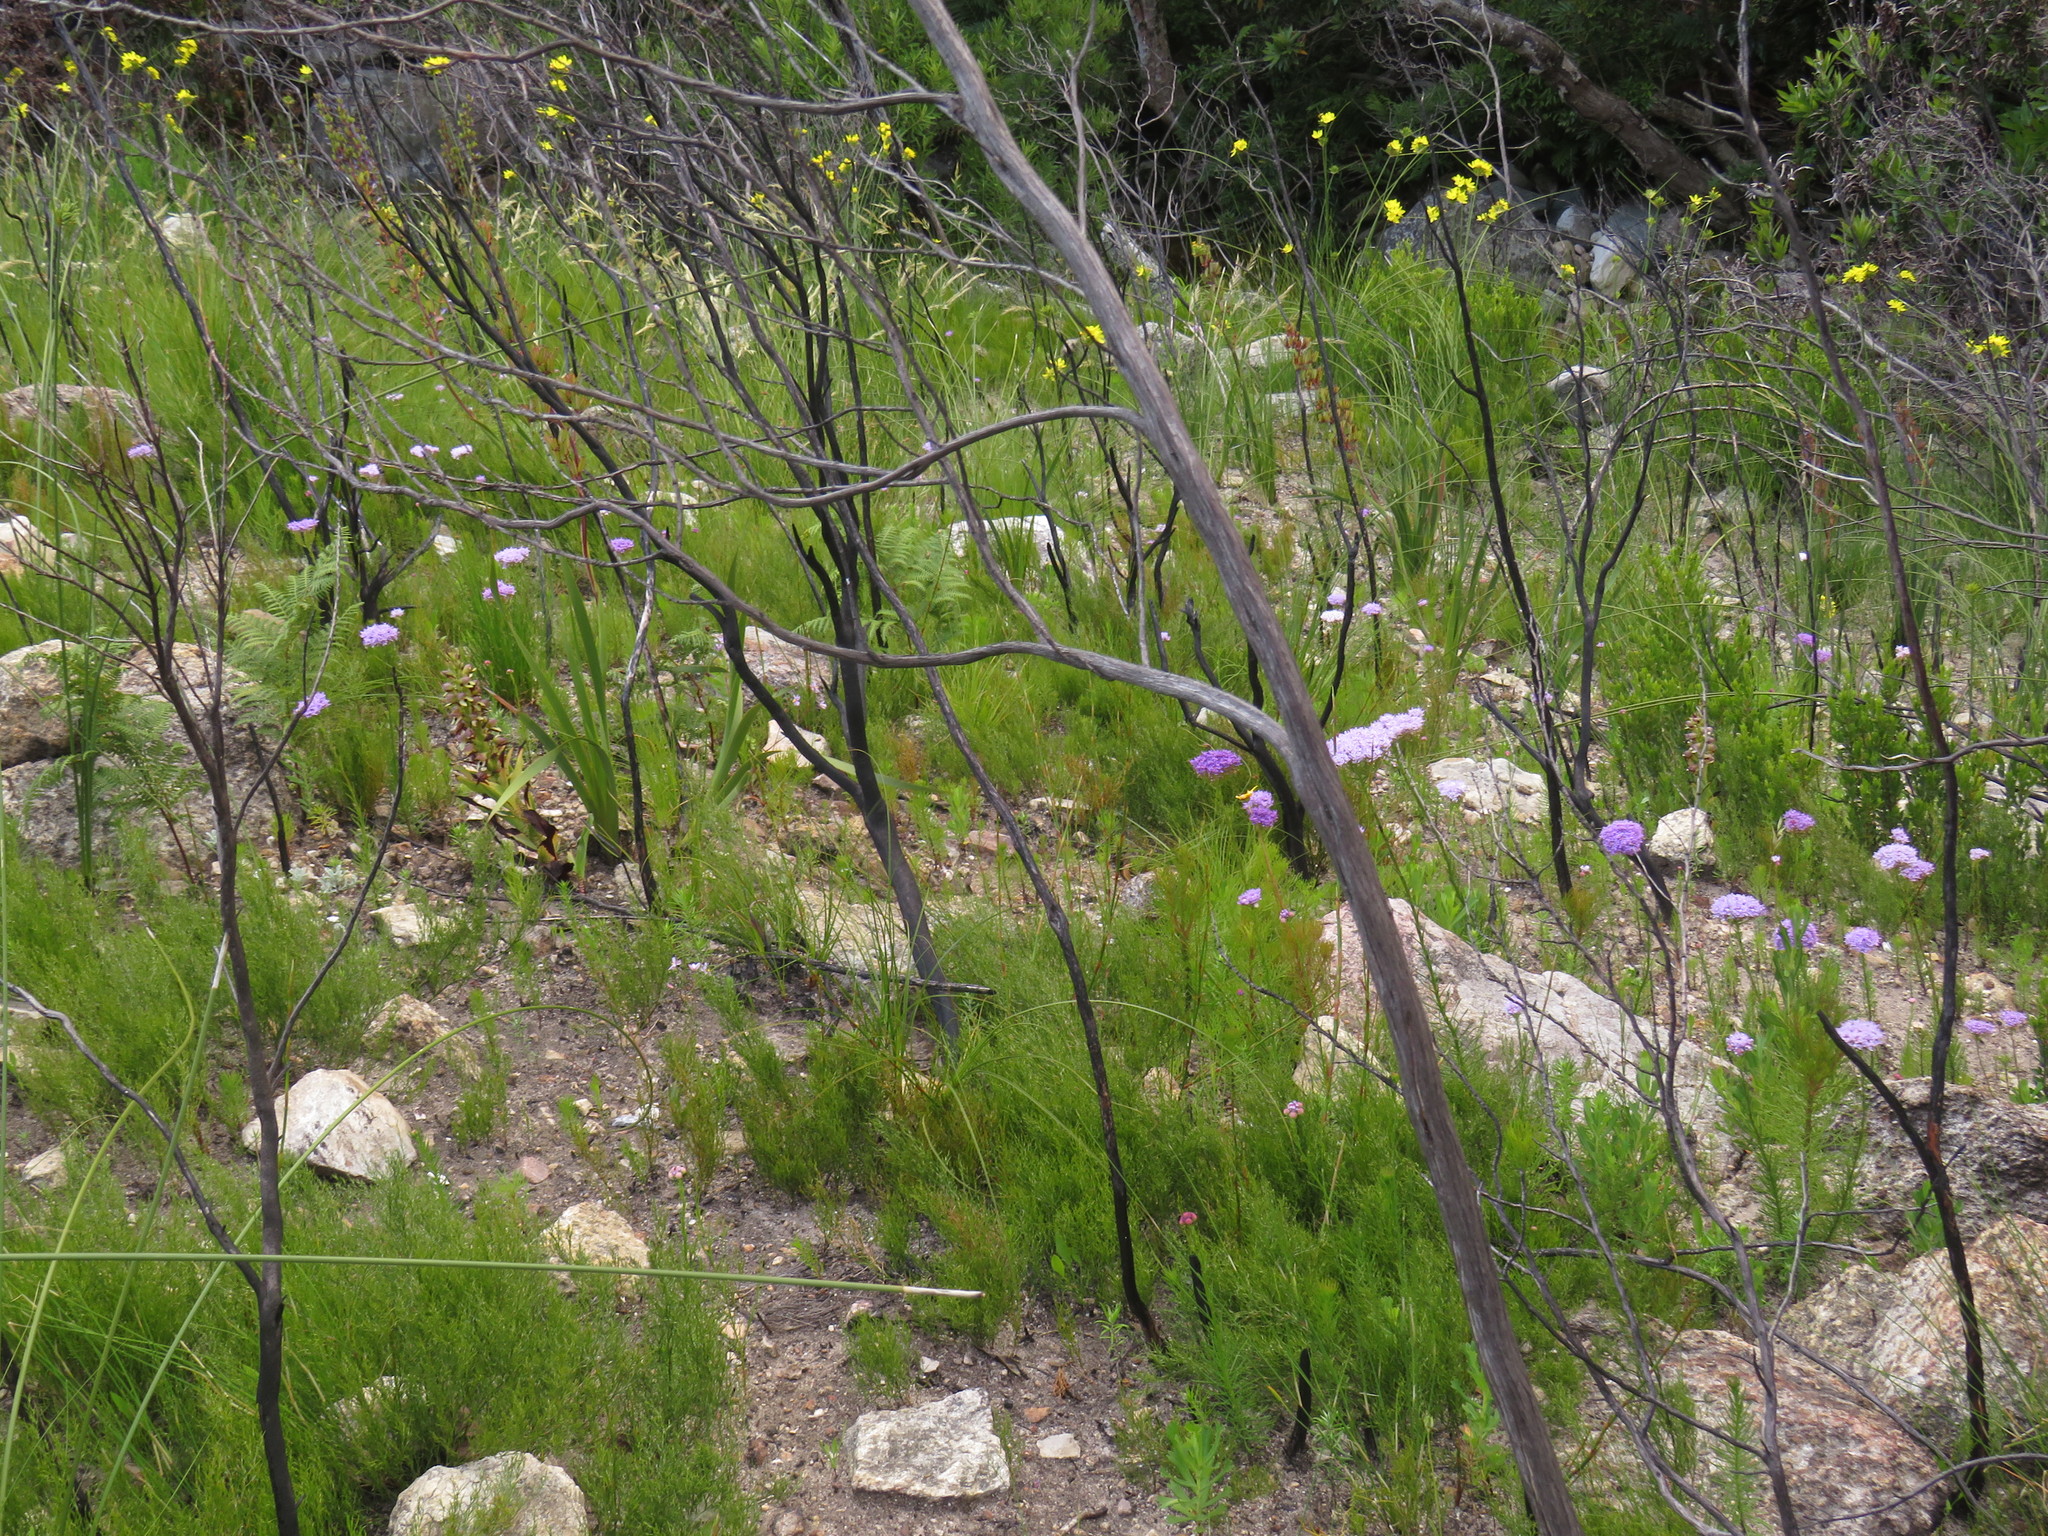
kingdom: Plantae
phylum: Tracheophyta
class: Liliopsida
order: Asparagales
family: Orchidaceae
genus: Disa
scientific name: Disa cornuta
